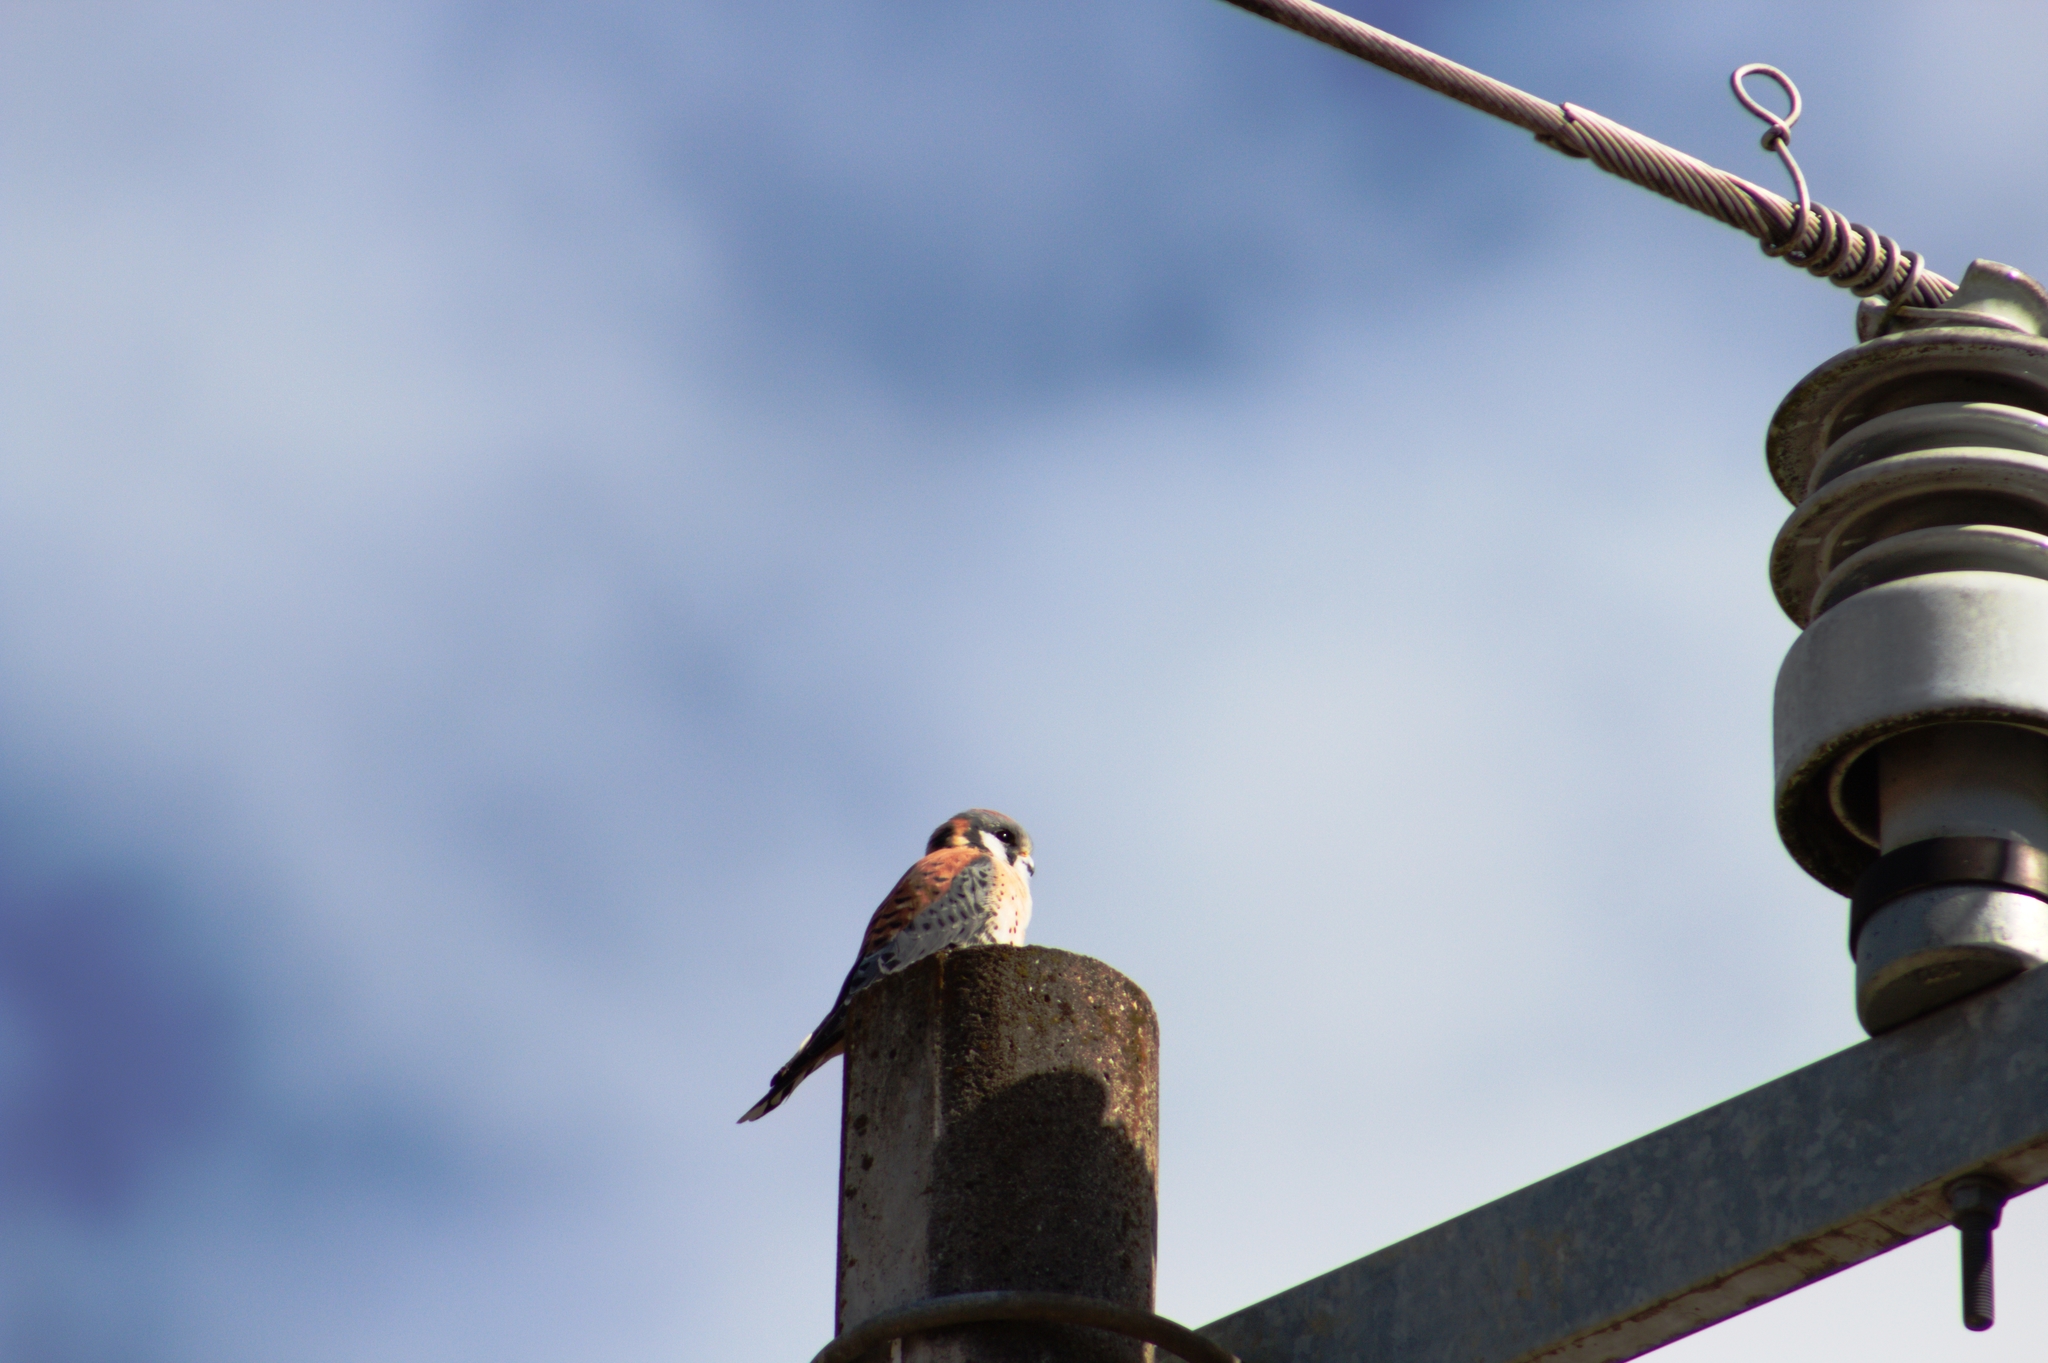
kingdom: Animalia
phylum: Chordata
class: Aves
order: Falconiformes
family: Falconidae
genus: Falco
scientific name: Falco sparverius
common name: American kestrel
